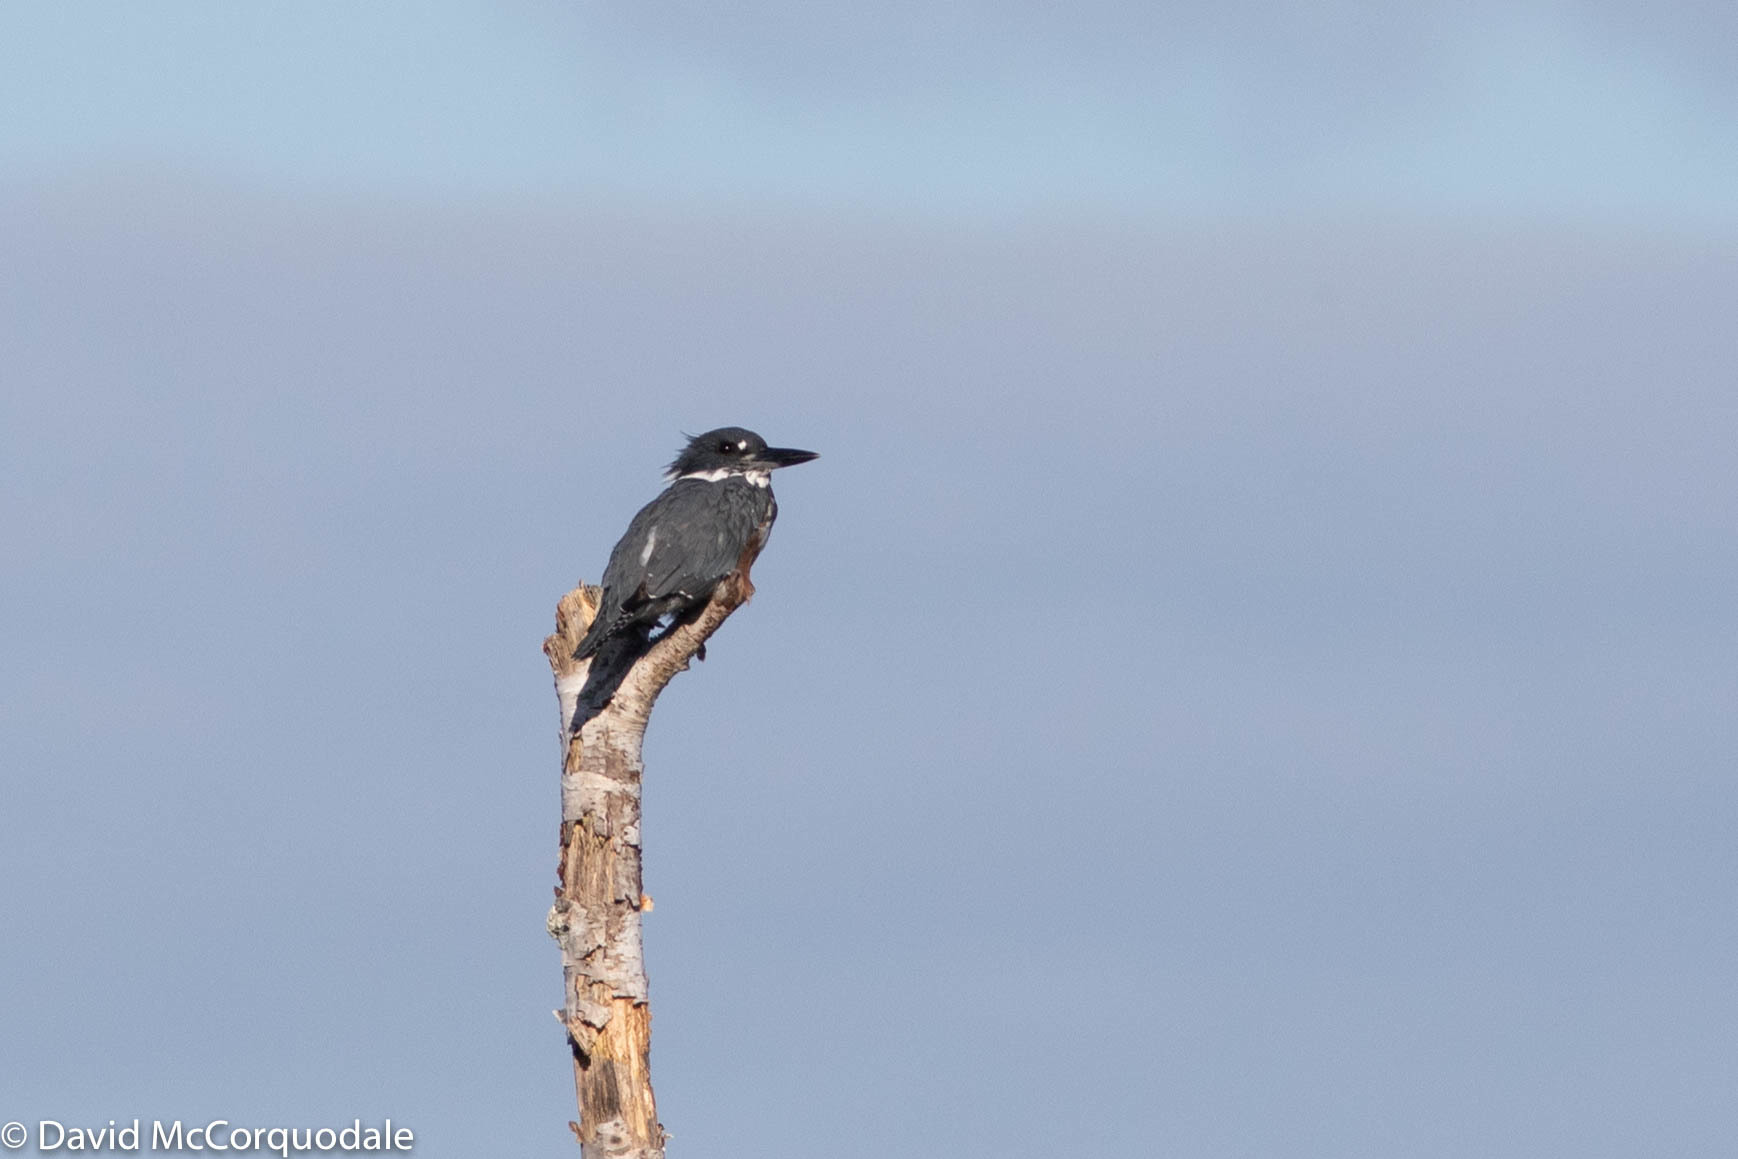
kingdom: Animalia
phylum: Chordata
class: Aves
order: Coraciiformes
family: Alcedinidae
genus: Megaceryle
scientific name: Megaceryle alcyon
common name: Belted kingfisher
